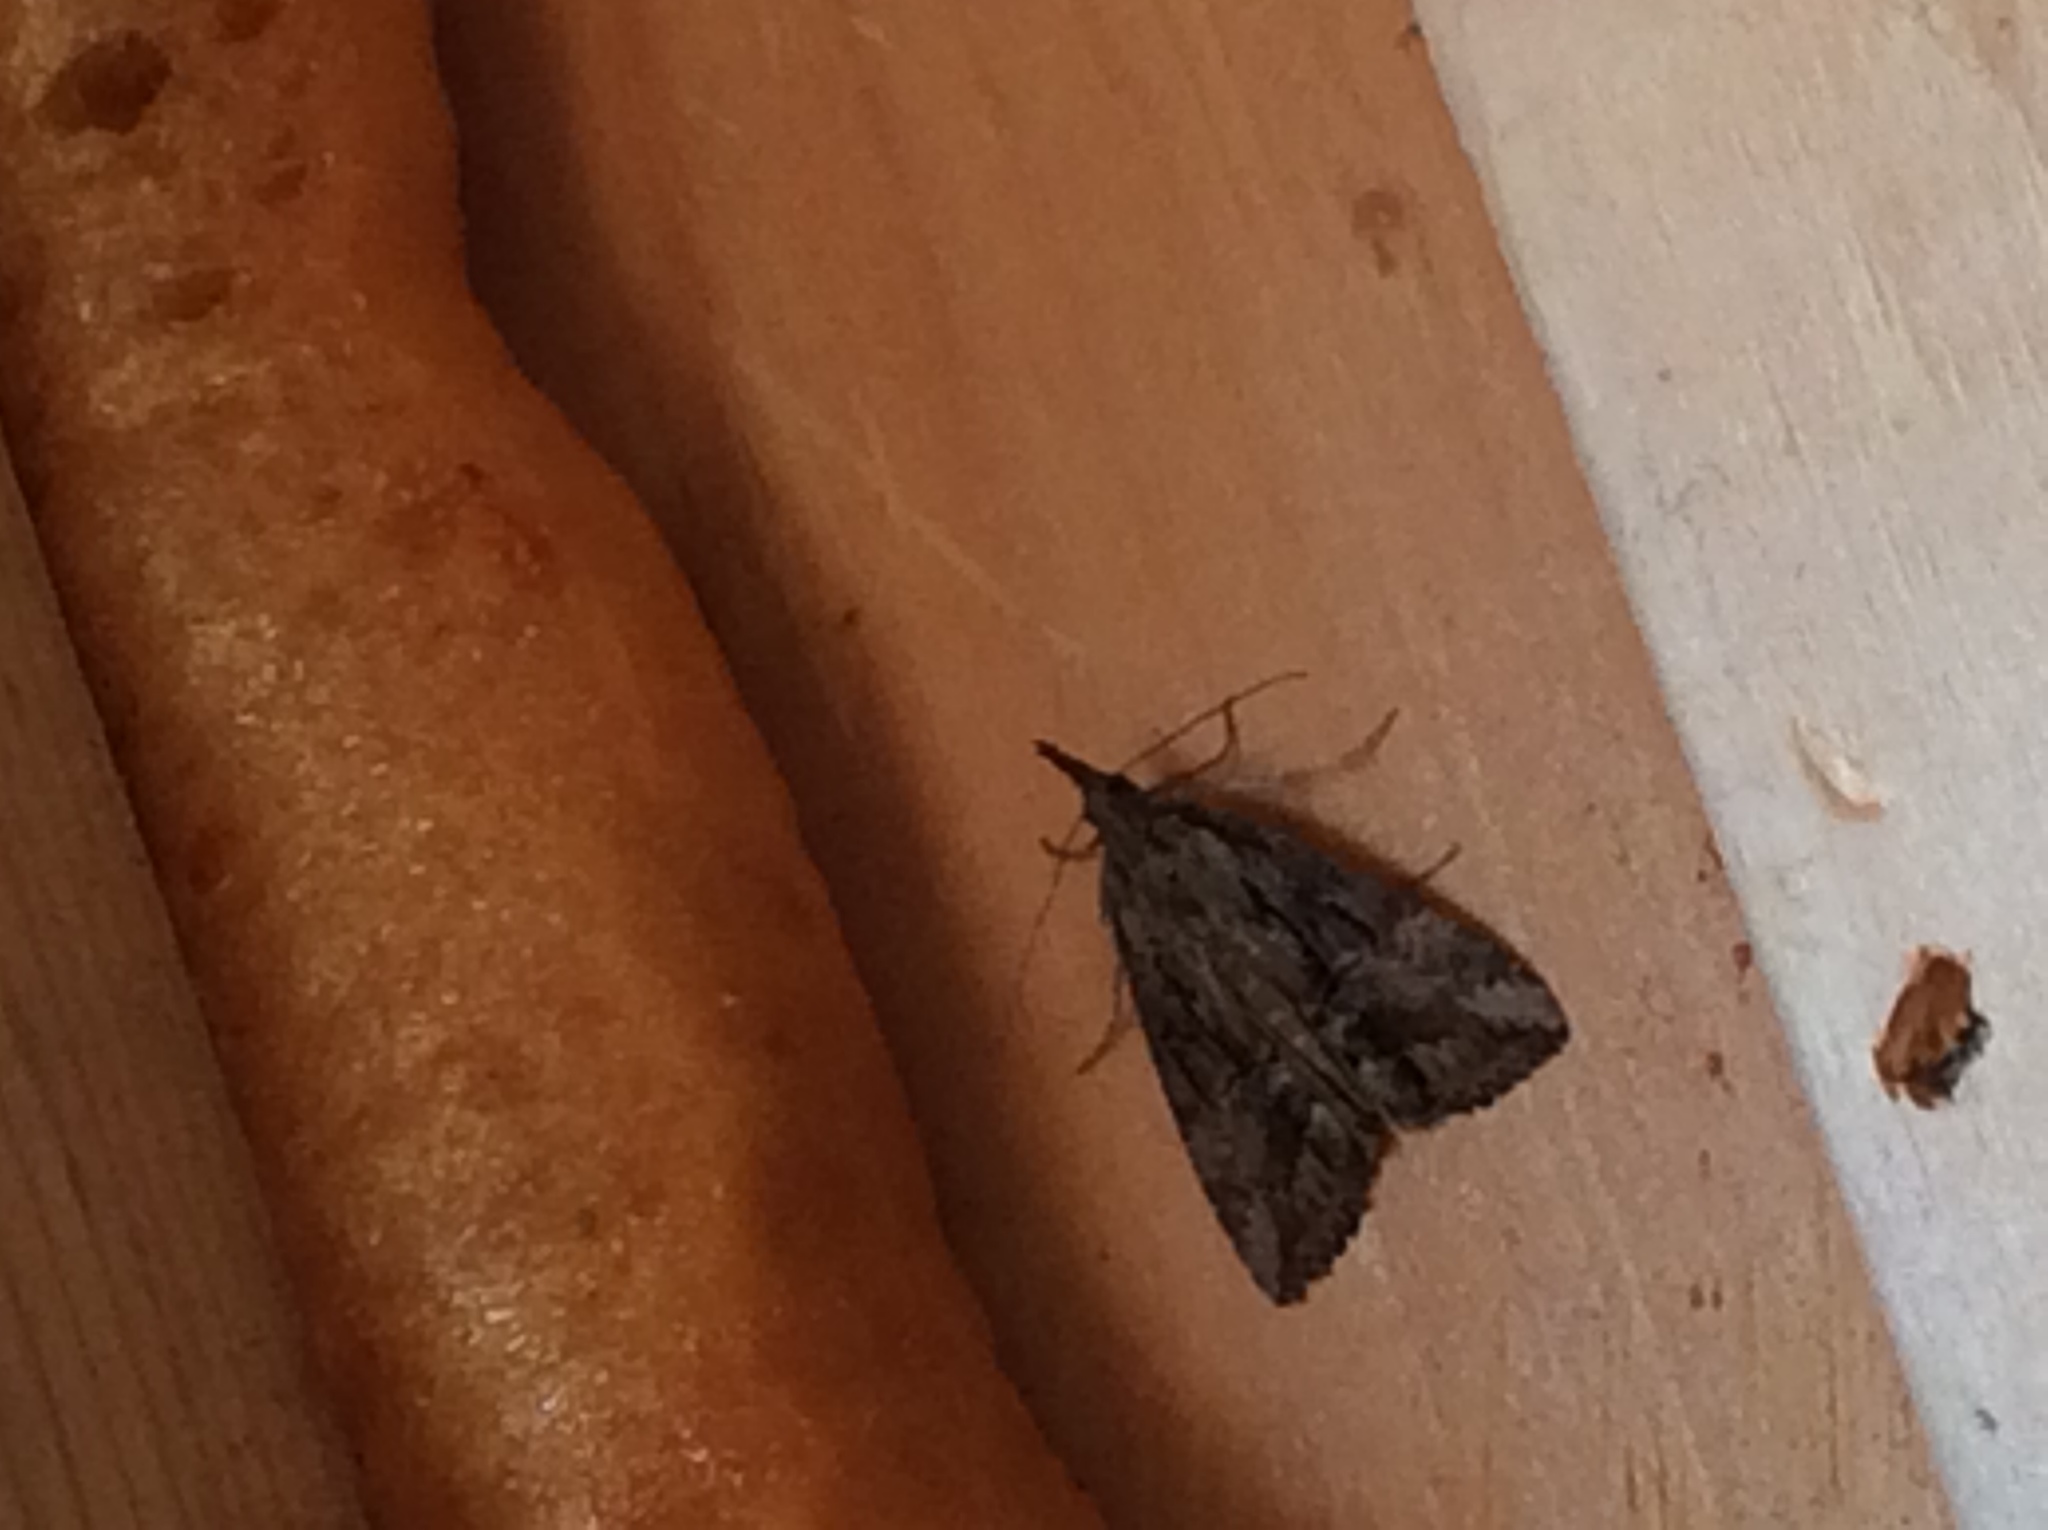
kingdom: Animalia
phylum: Arthropoda
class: Insecta
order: Lepidoptera
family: Erebidae
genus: Hypena
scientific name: Hypena scabra
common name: Green cloverworm
